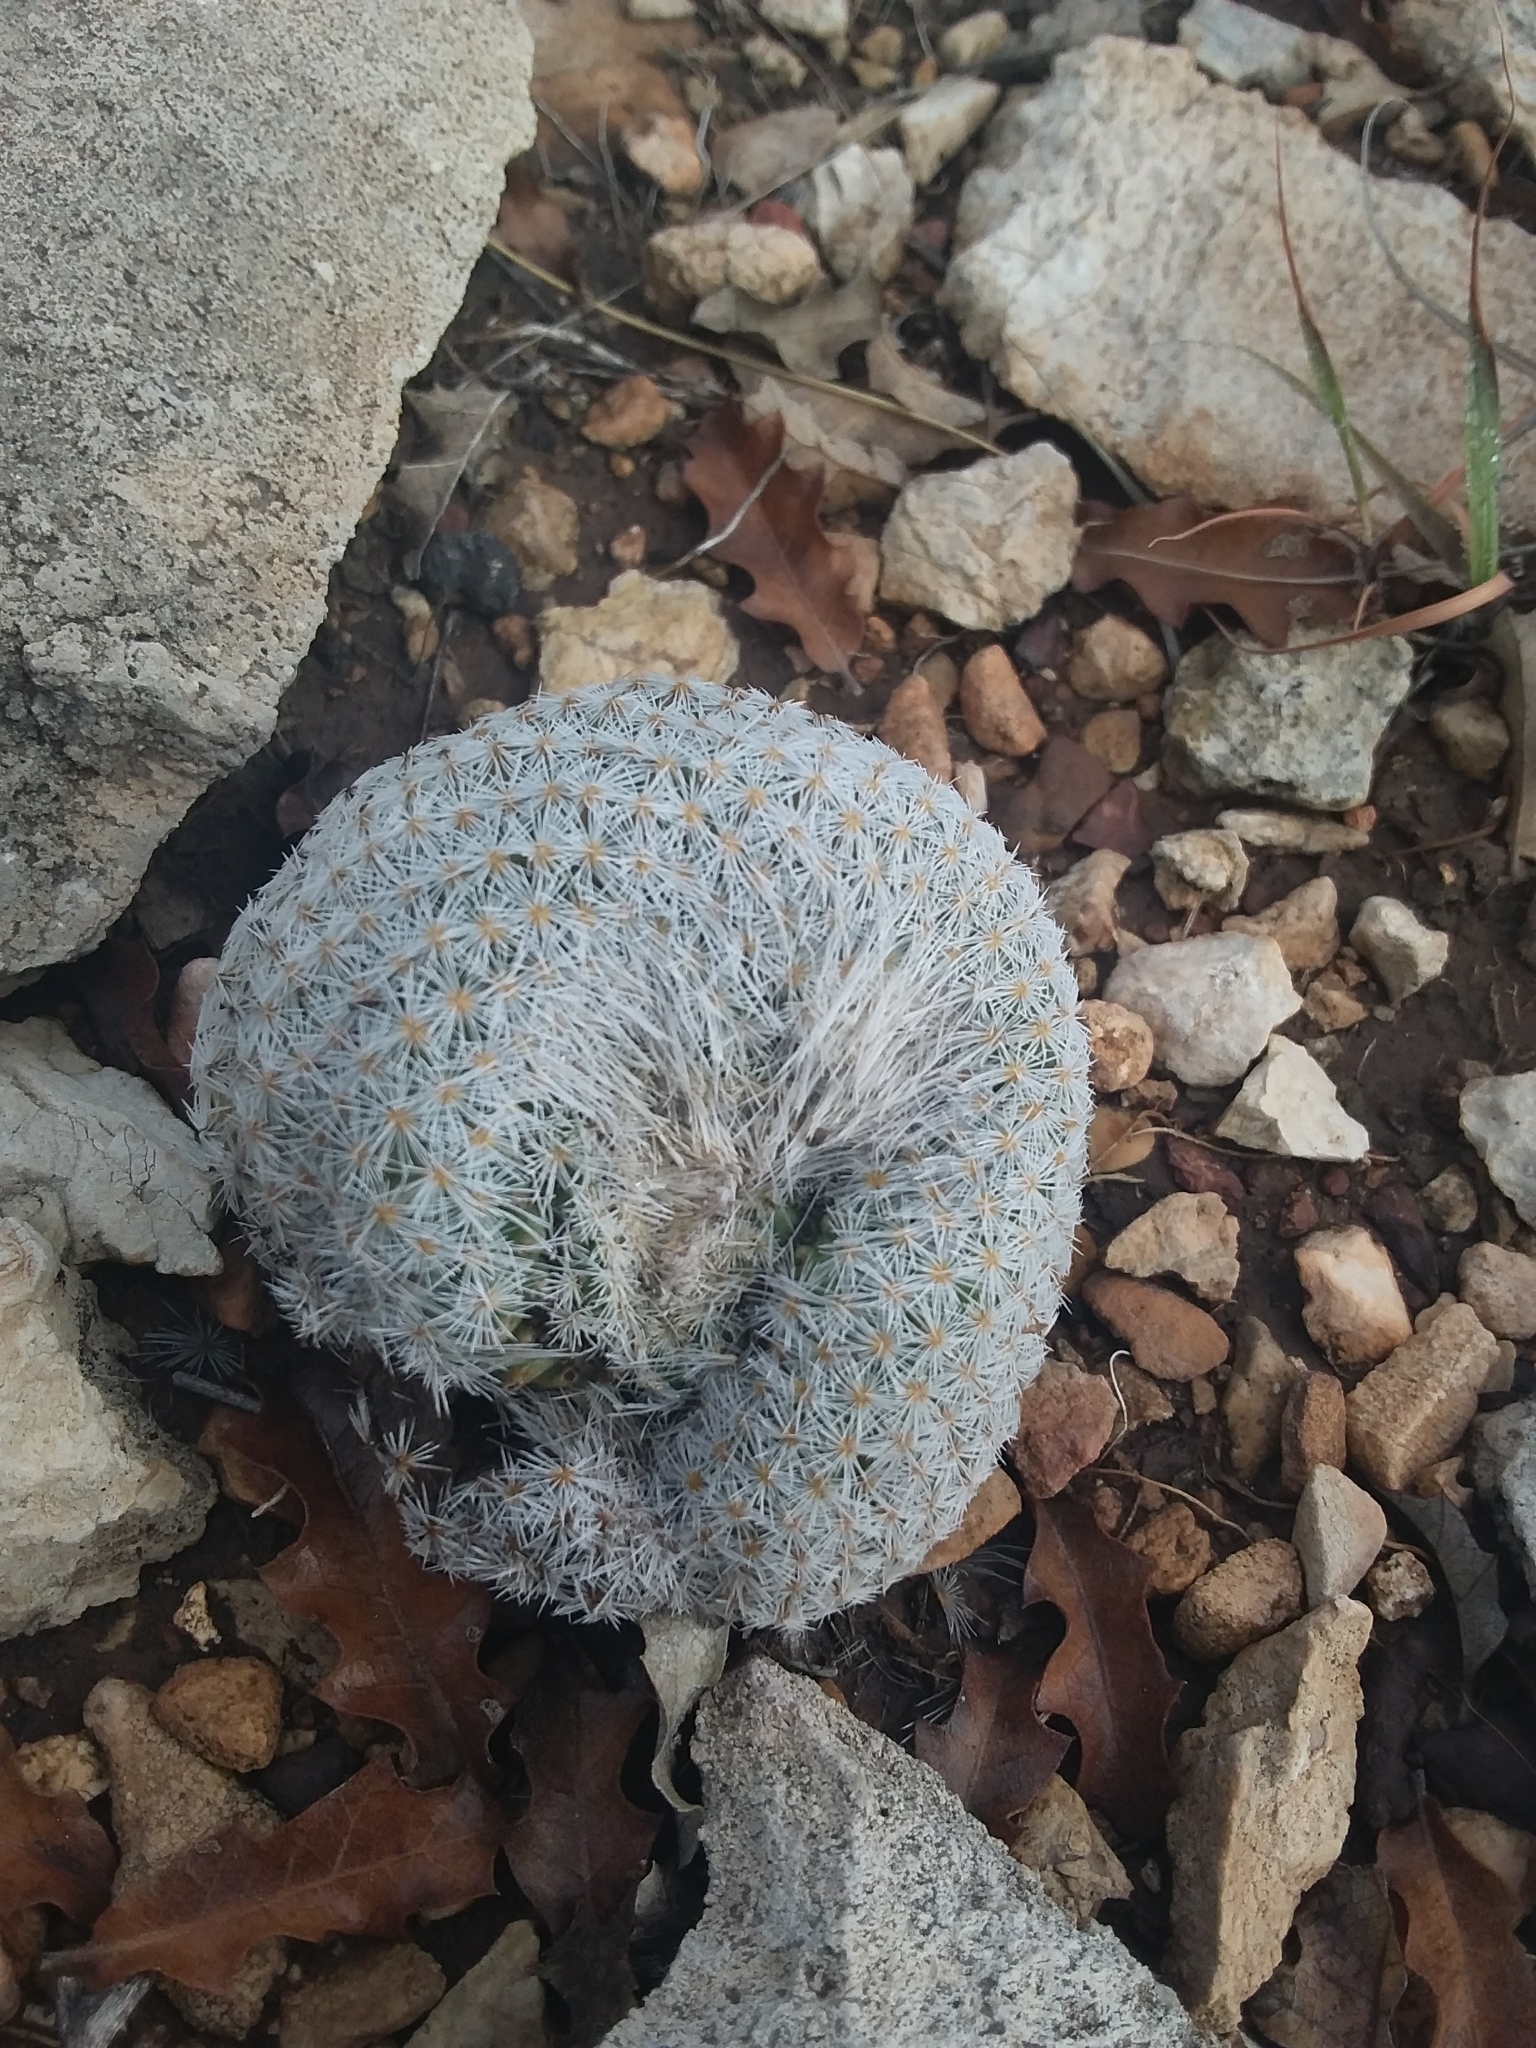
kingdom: Plantae
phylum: Tracheophyta
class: Magnoliopsida
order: Caryophyllales
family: Cactaceae
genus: Epithelantha
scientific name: Epithelantha micromeris
